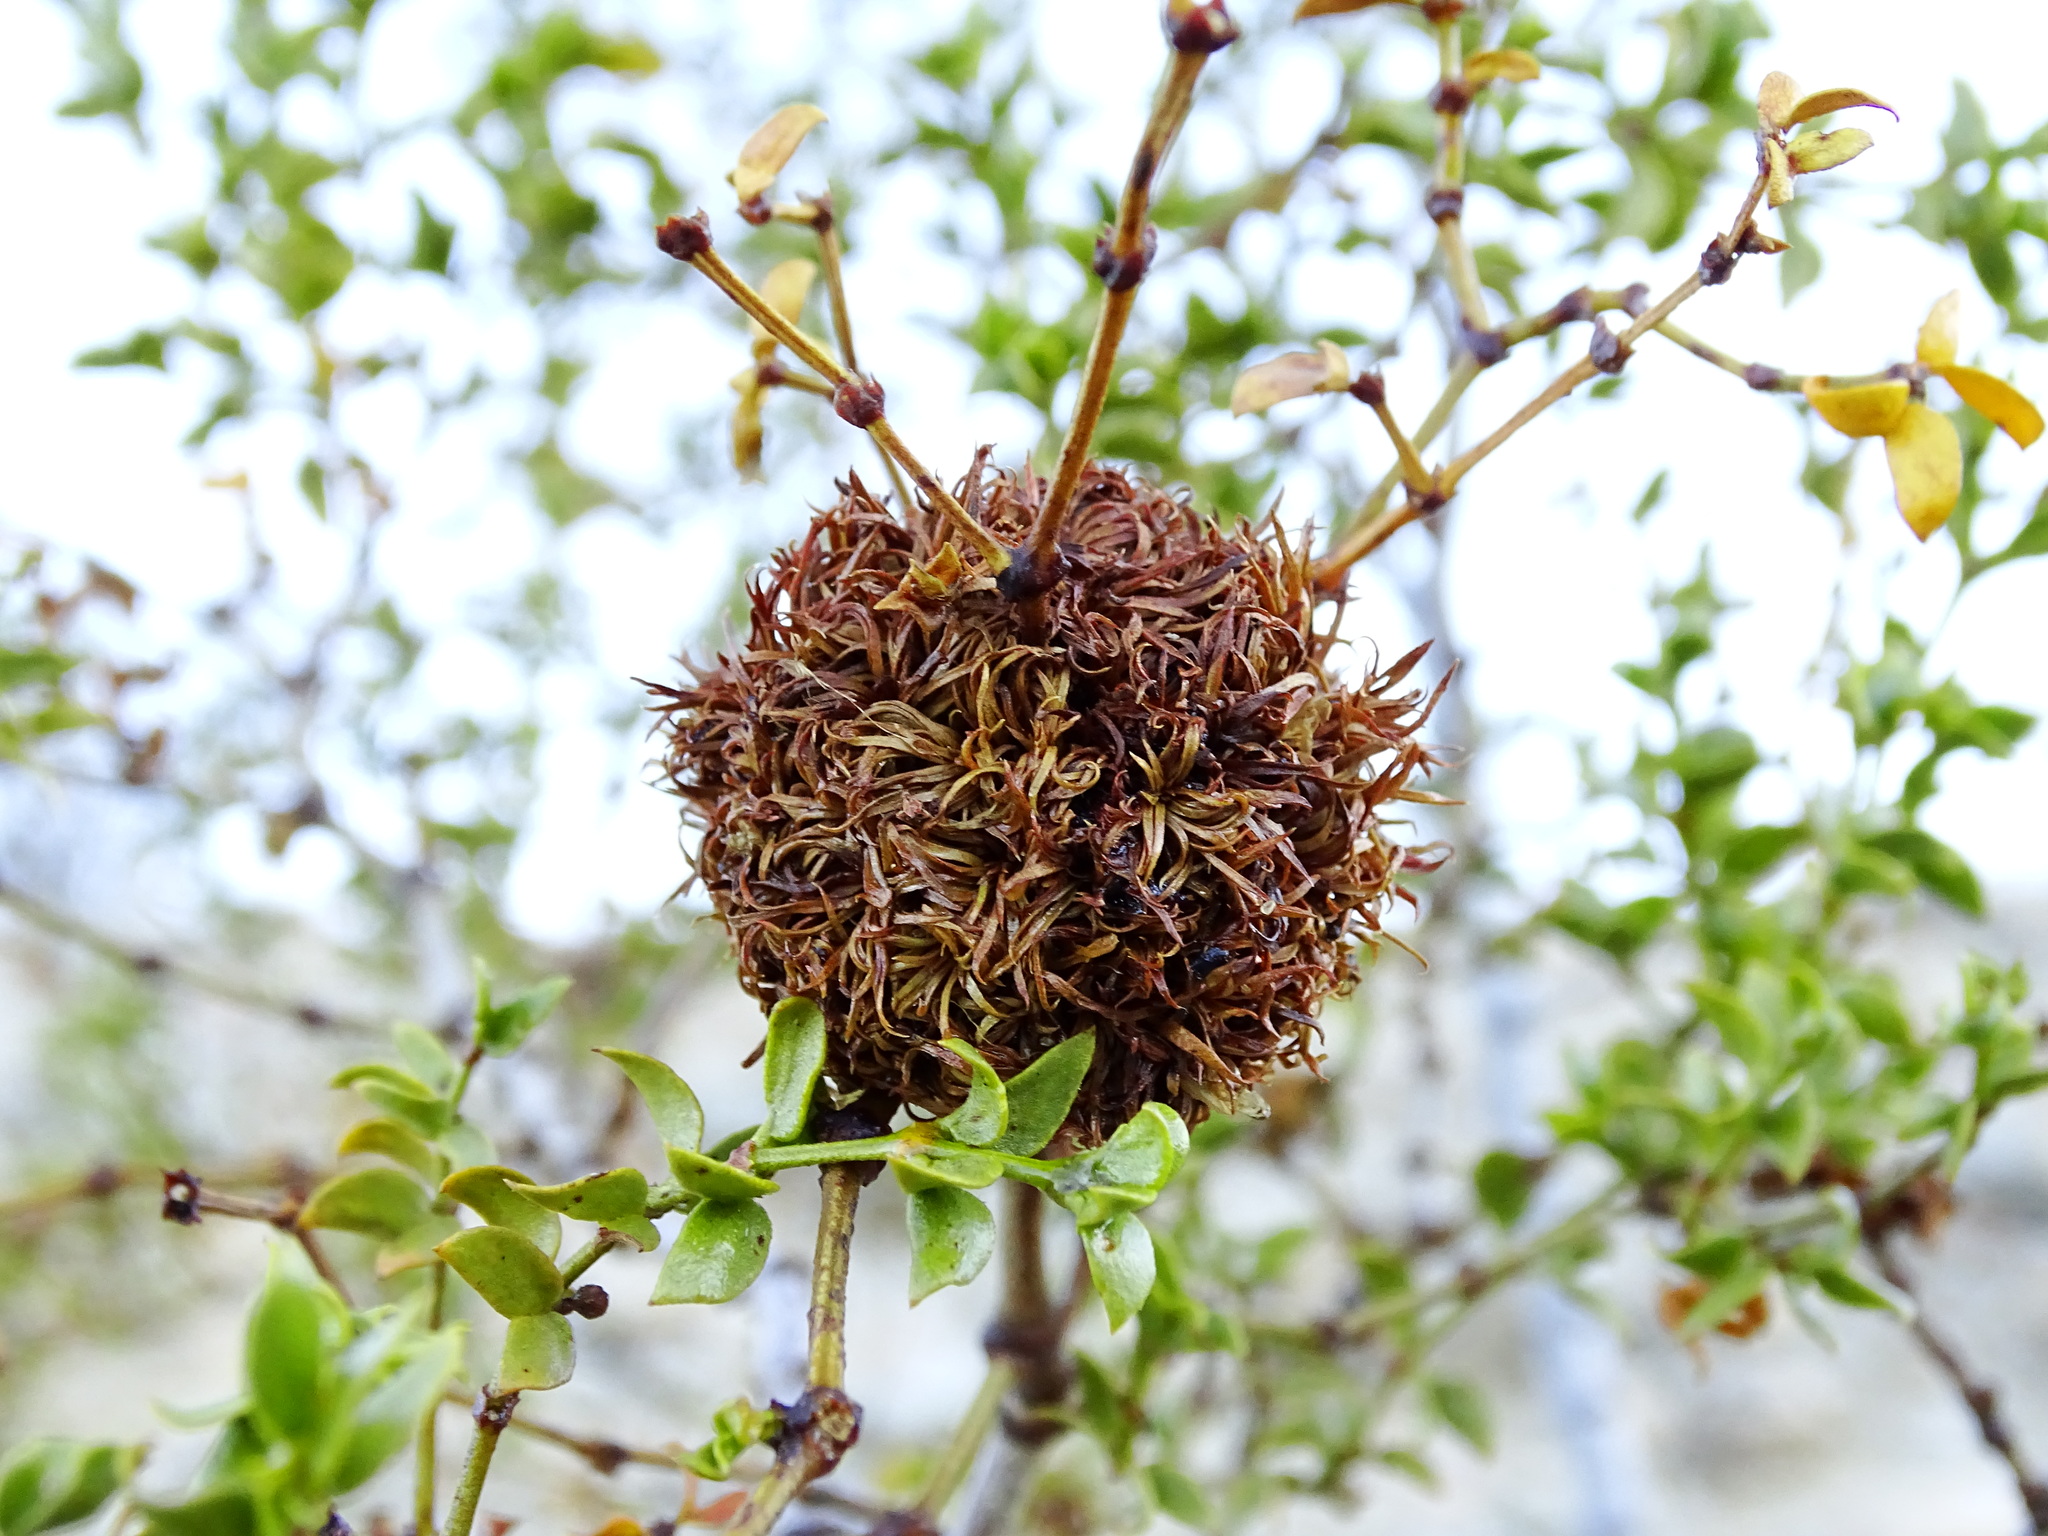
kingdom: Animalia
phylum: Arthropoda
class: Insecta
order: Diptera
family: Cecidomyiidae
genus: Asphondylia
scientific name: Asphondylia auripila
